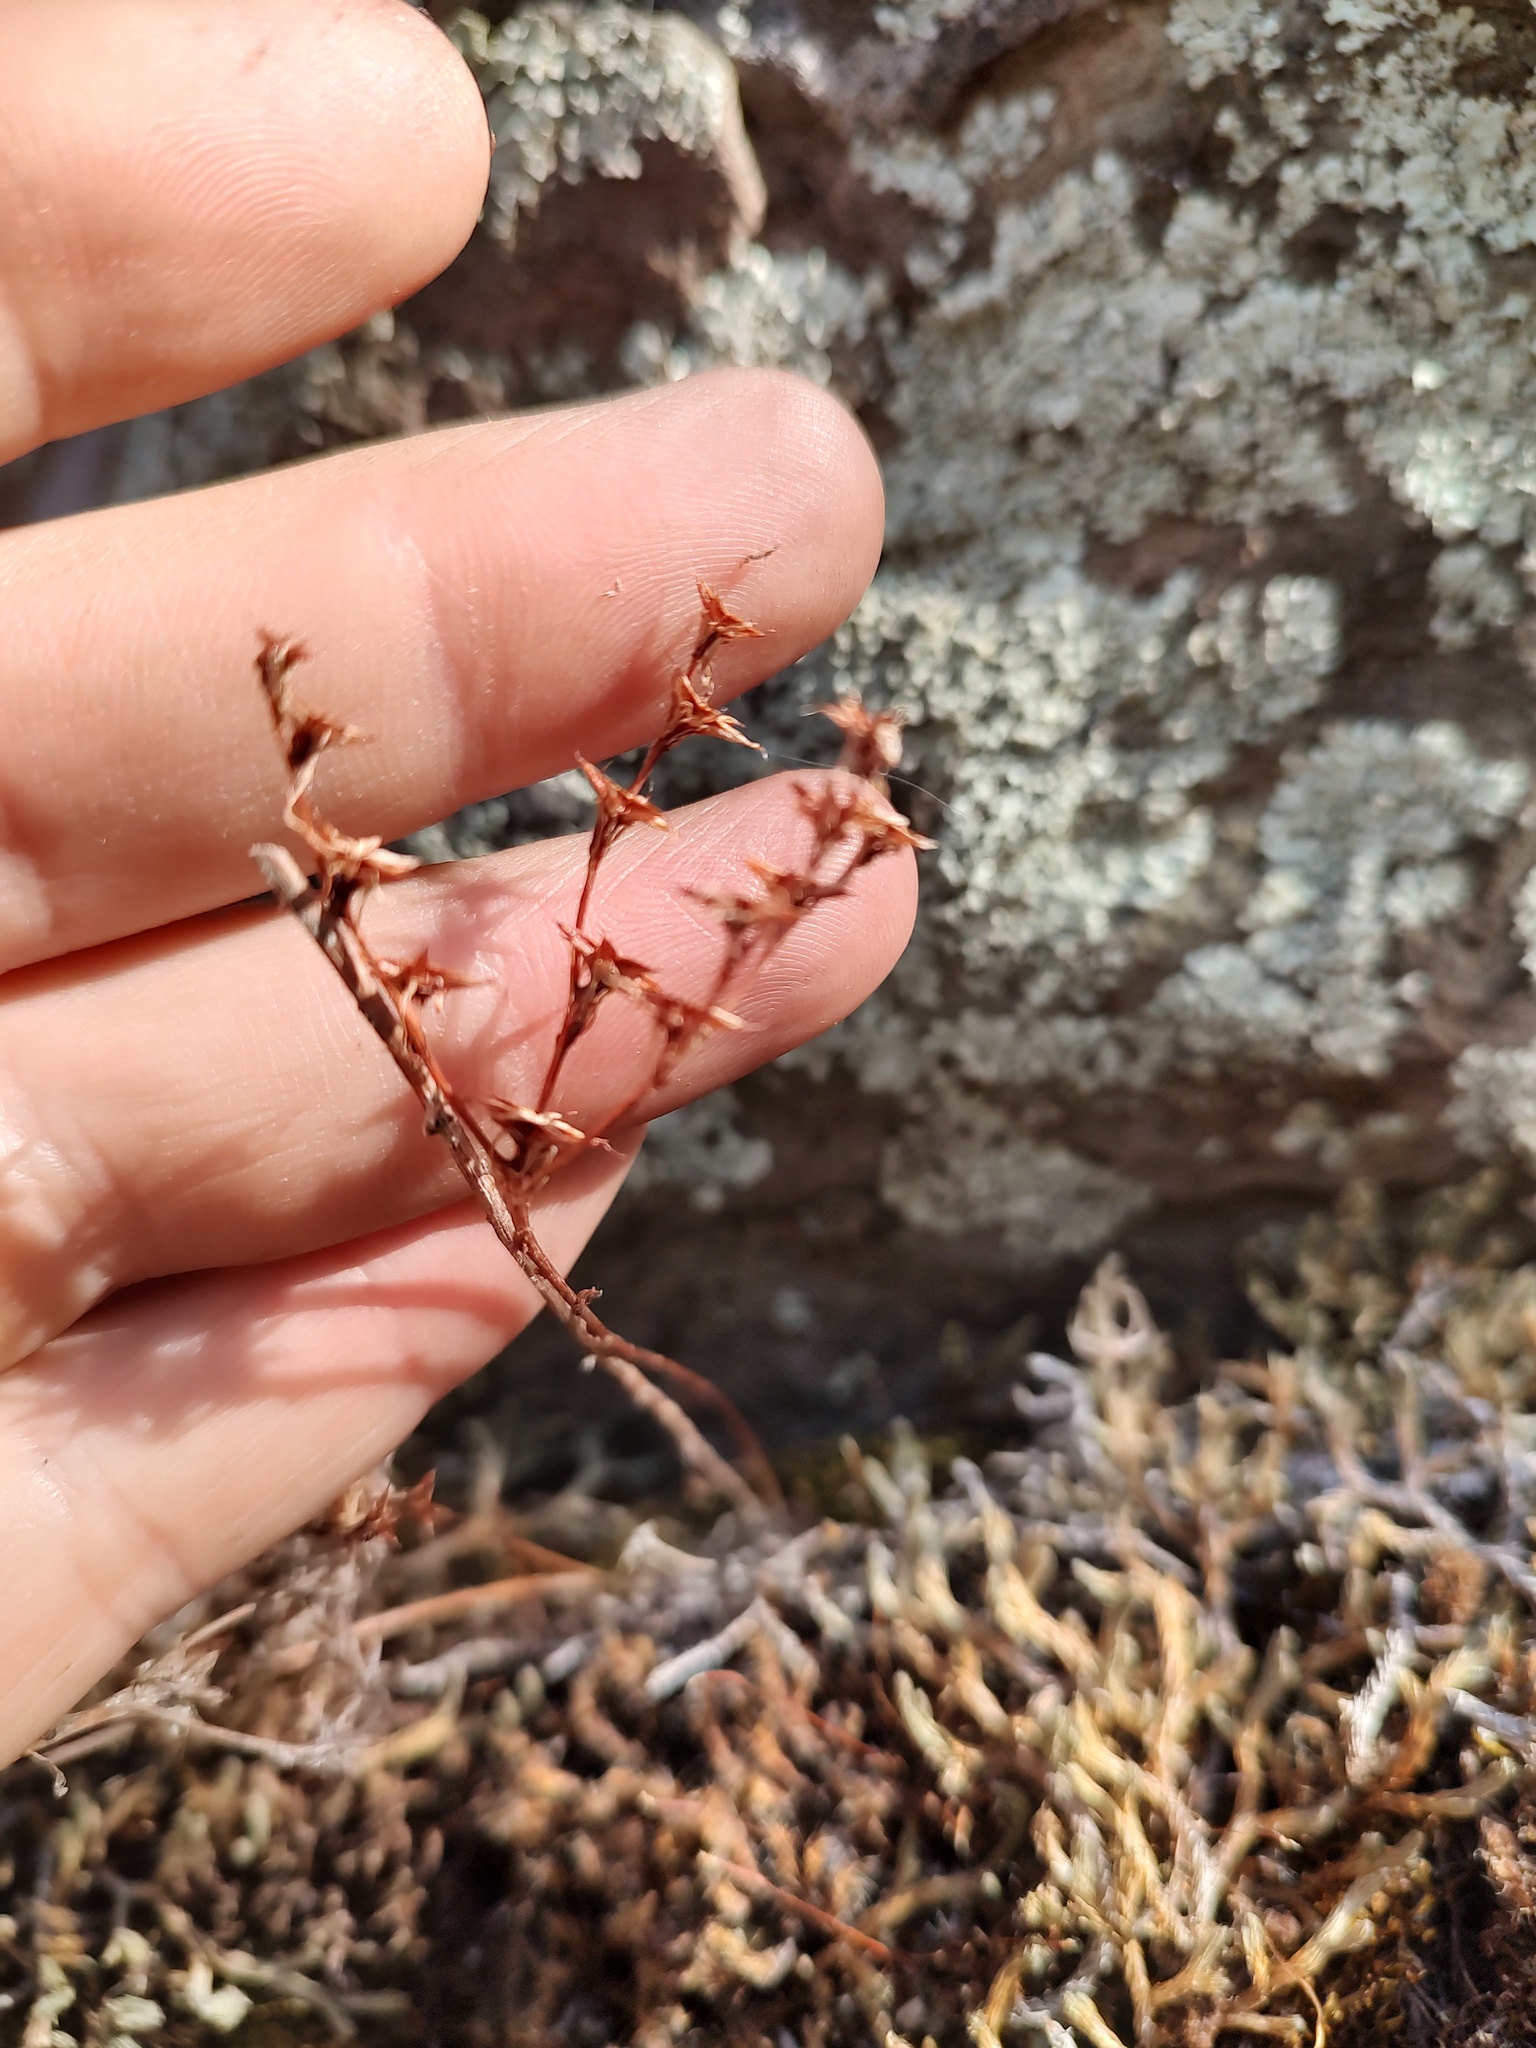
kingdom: Plantae
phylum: Tracheophyta
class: Magnoliopsida
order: Saxifragales
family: Crassulaceae
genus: Sedum
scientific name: Sedum leibergii
